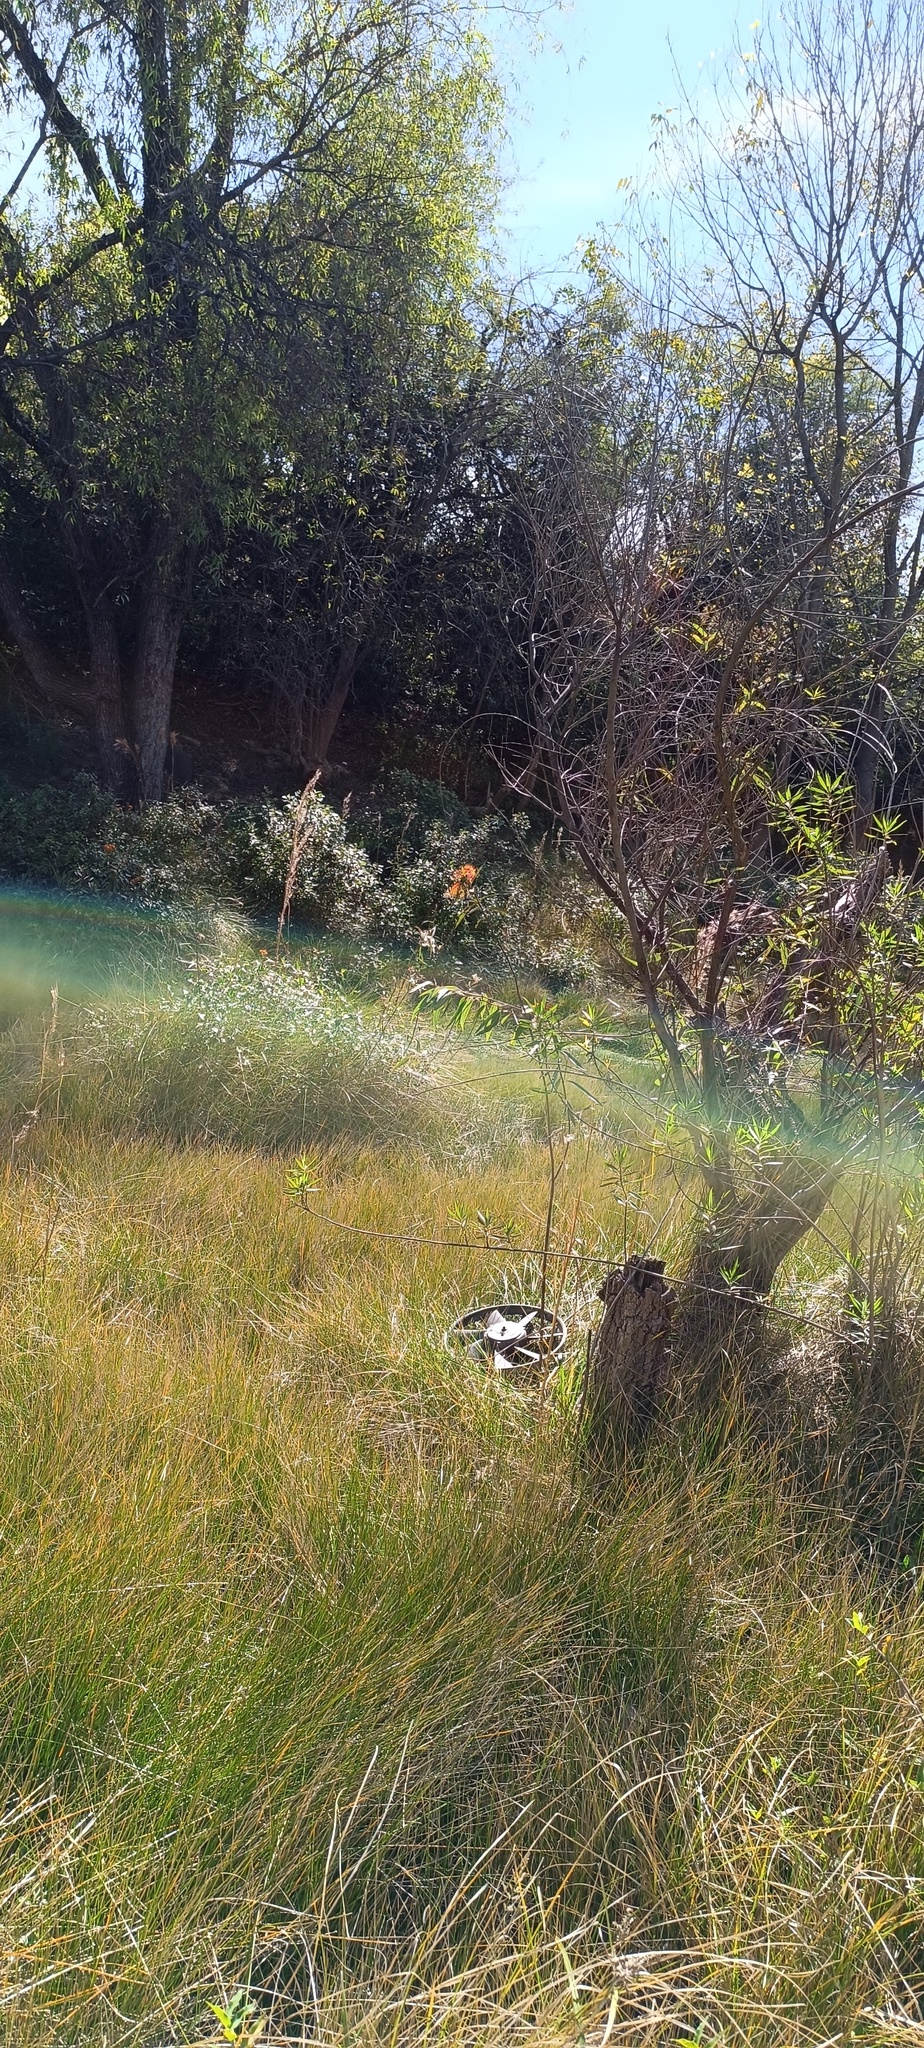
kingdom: Animalia
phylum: Arthropoda
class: Insecta
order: Lepidoptera
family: Nymphalidae
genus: Danaus
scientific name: Danaus plexippus
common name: Monarch
